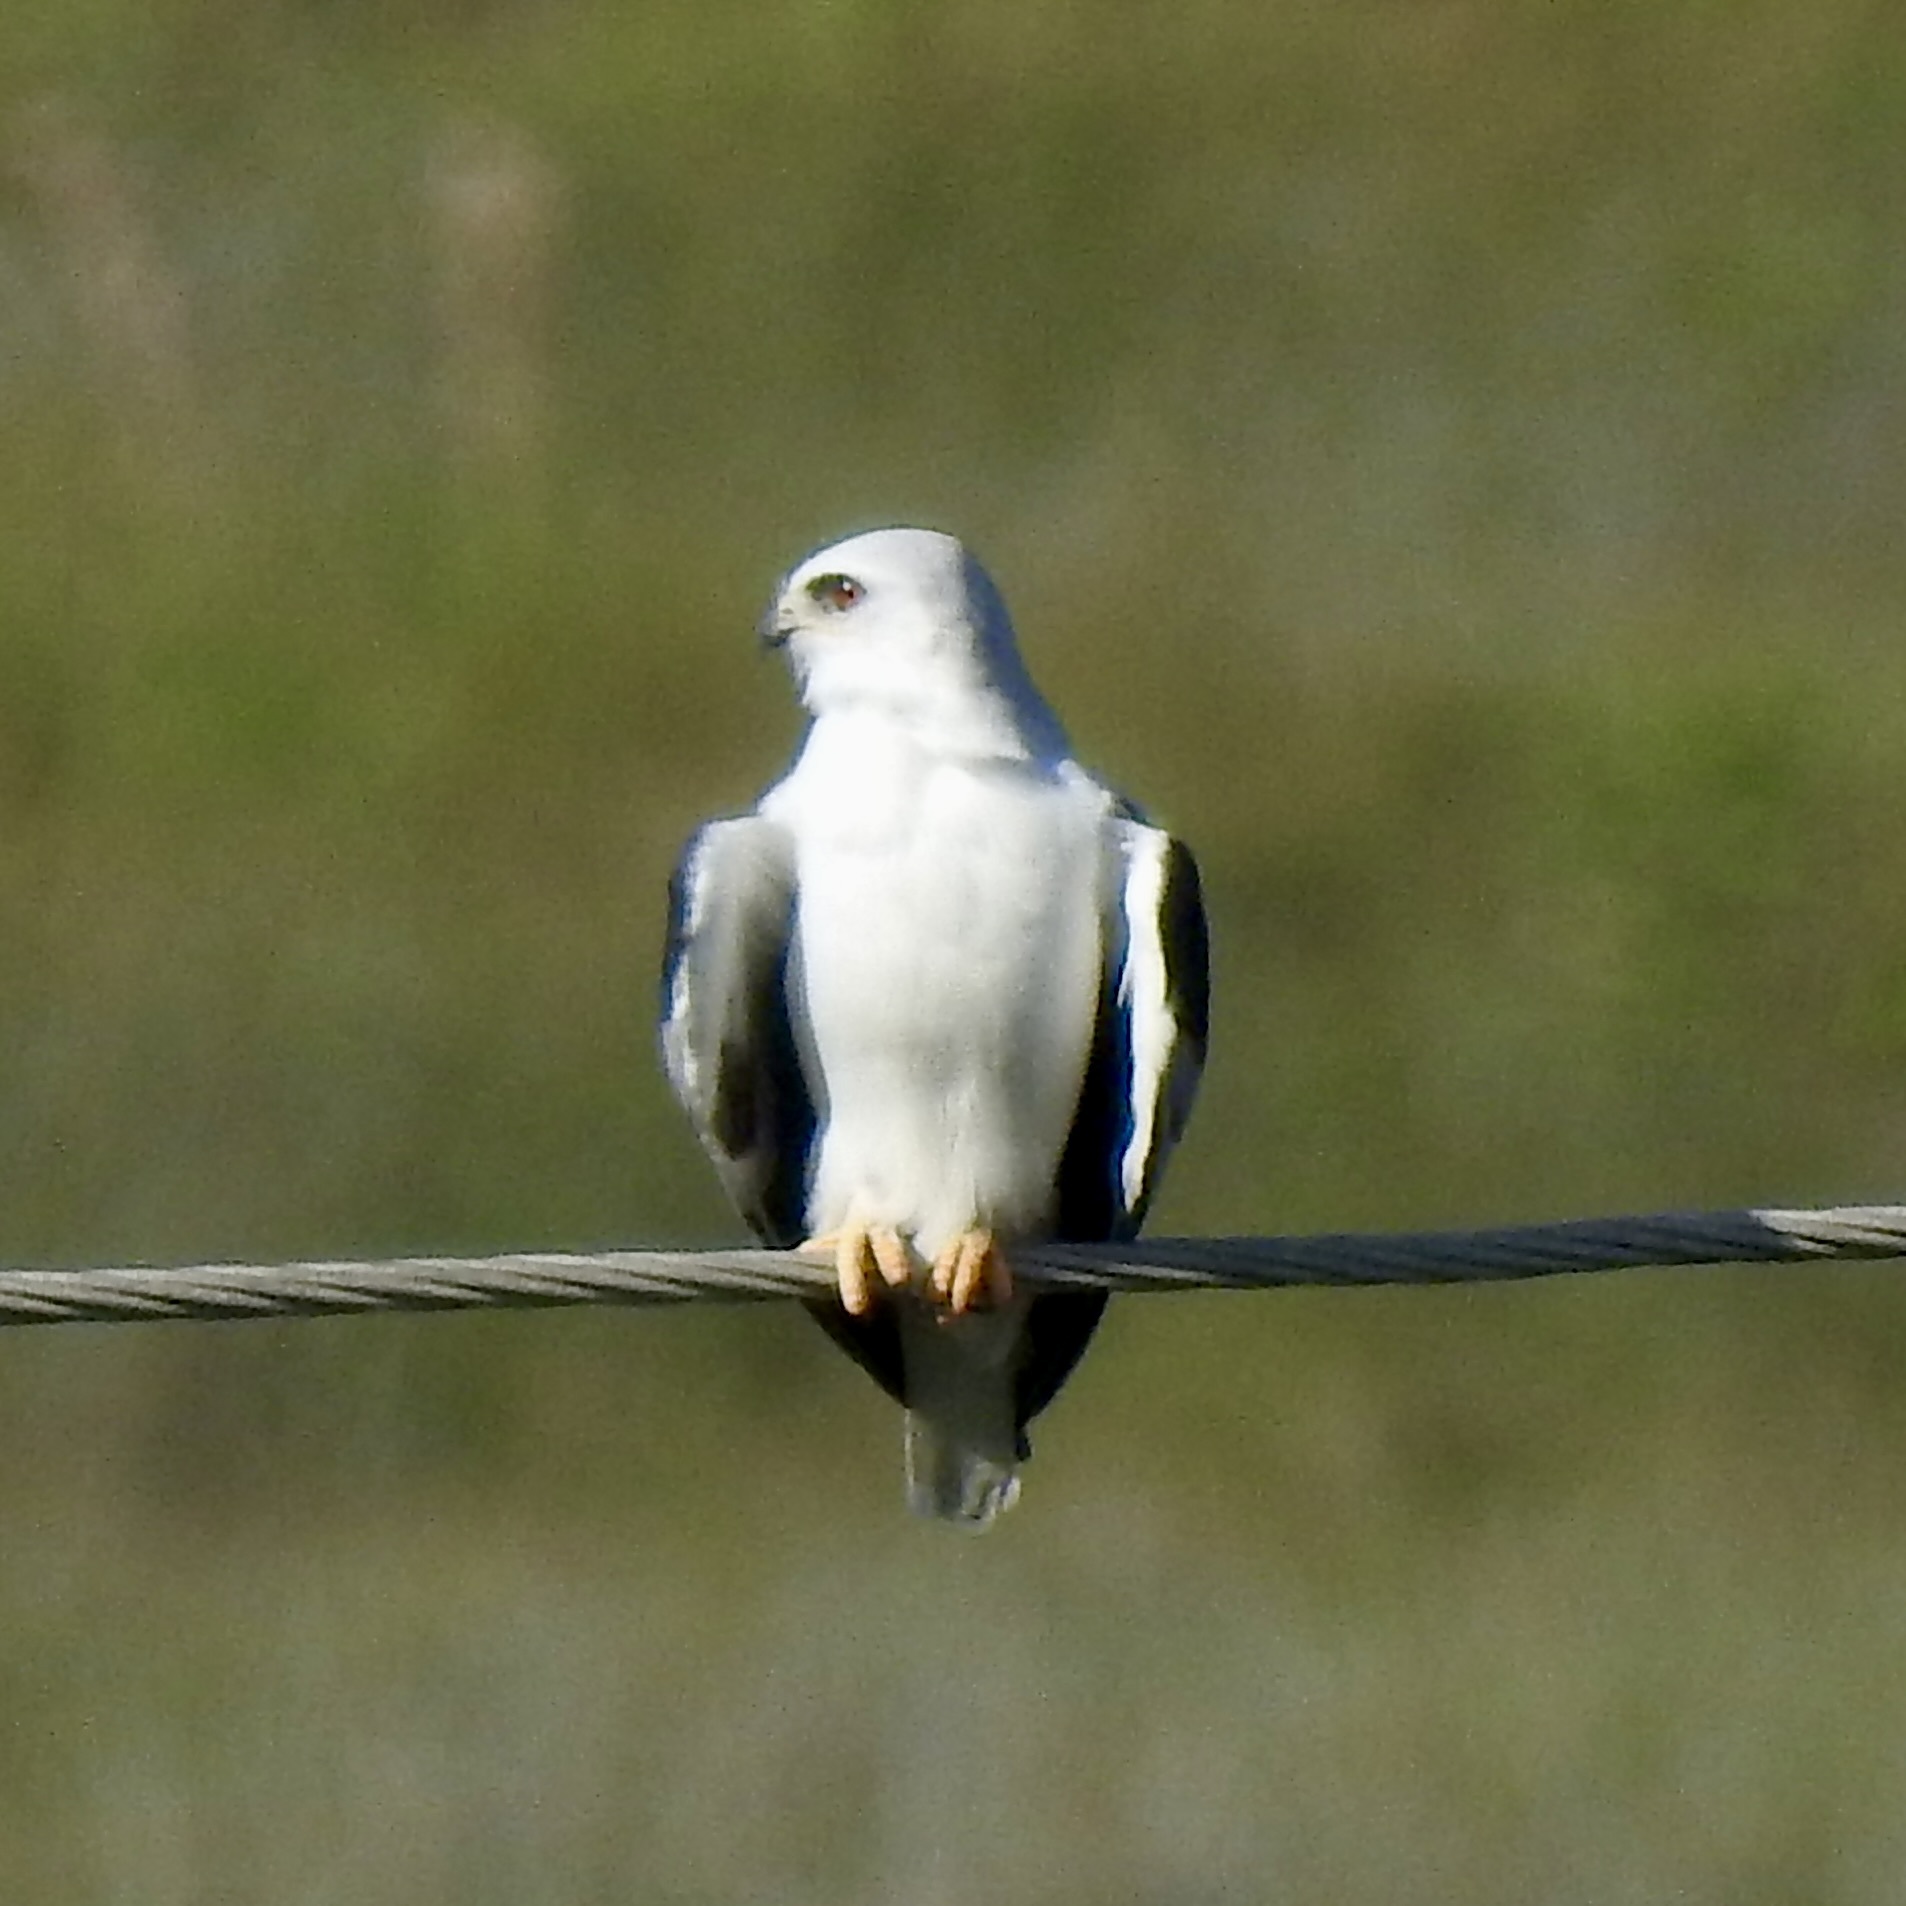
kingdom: Animalia
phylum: Chordata
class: Aves
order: Accipitriformes
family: Accipitridae
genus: Elanus
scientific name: Elanus leucurus
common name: White-tailed kite
